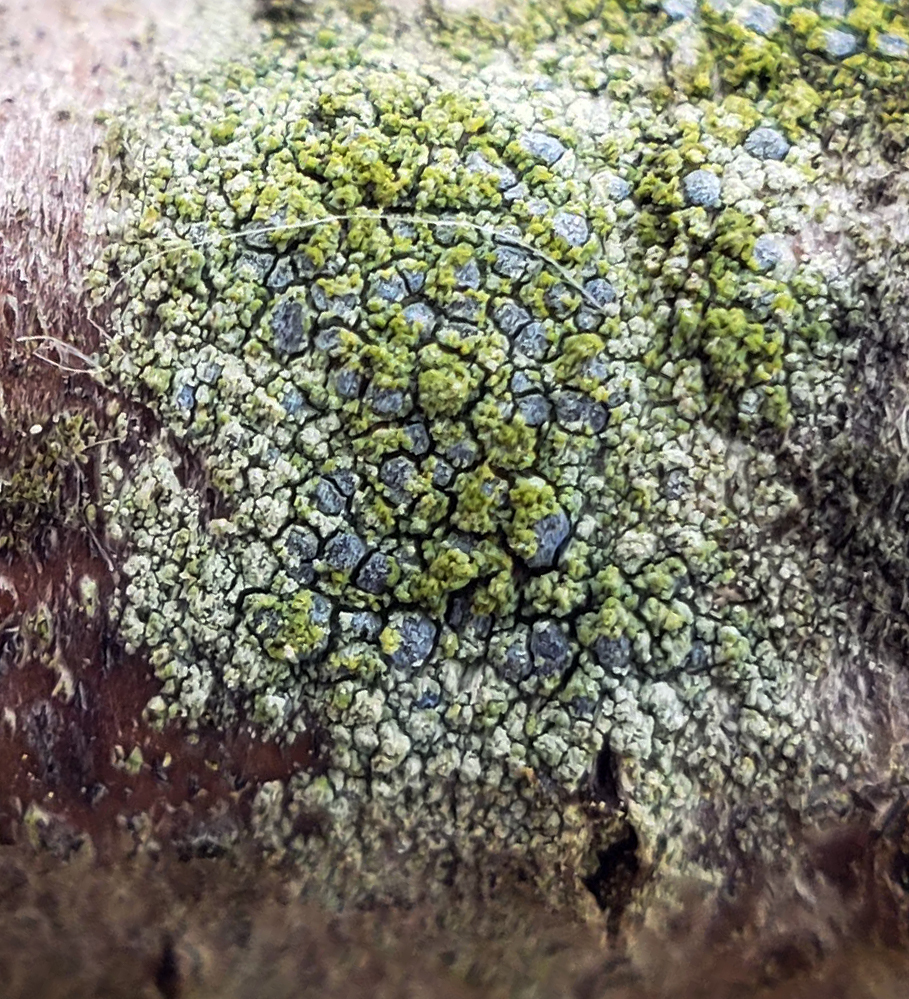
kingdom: Fungi
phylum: Ascomycota
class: Arthoniomycetes
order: Arthoniales
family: Chrysotrichaceae
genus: Chrysothrix
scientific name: Chrysothrix caesia
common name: Frosted comma lichen
